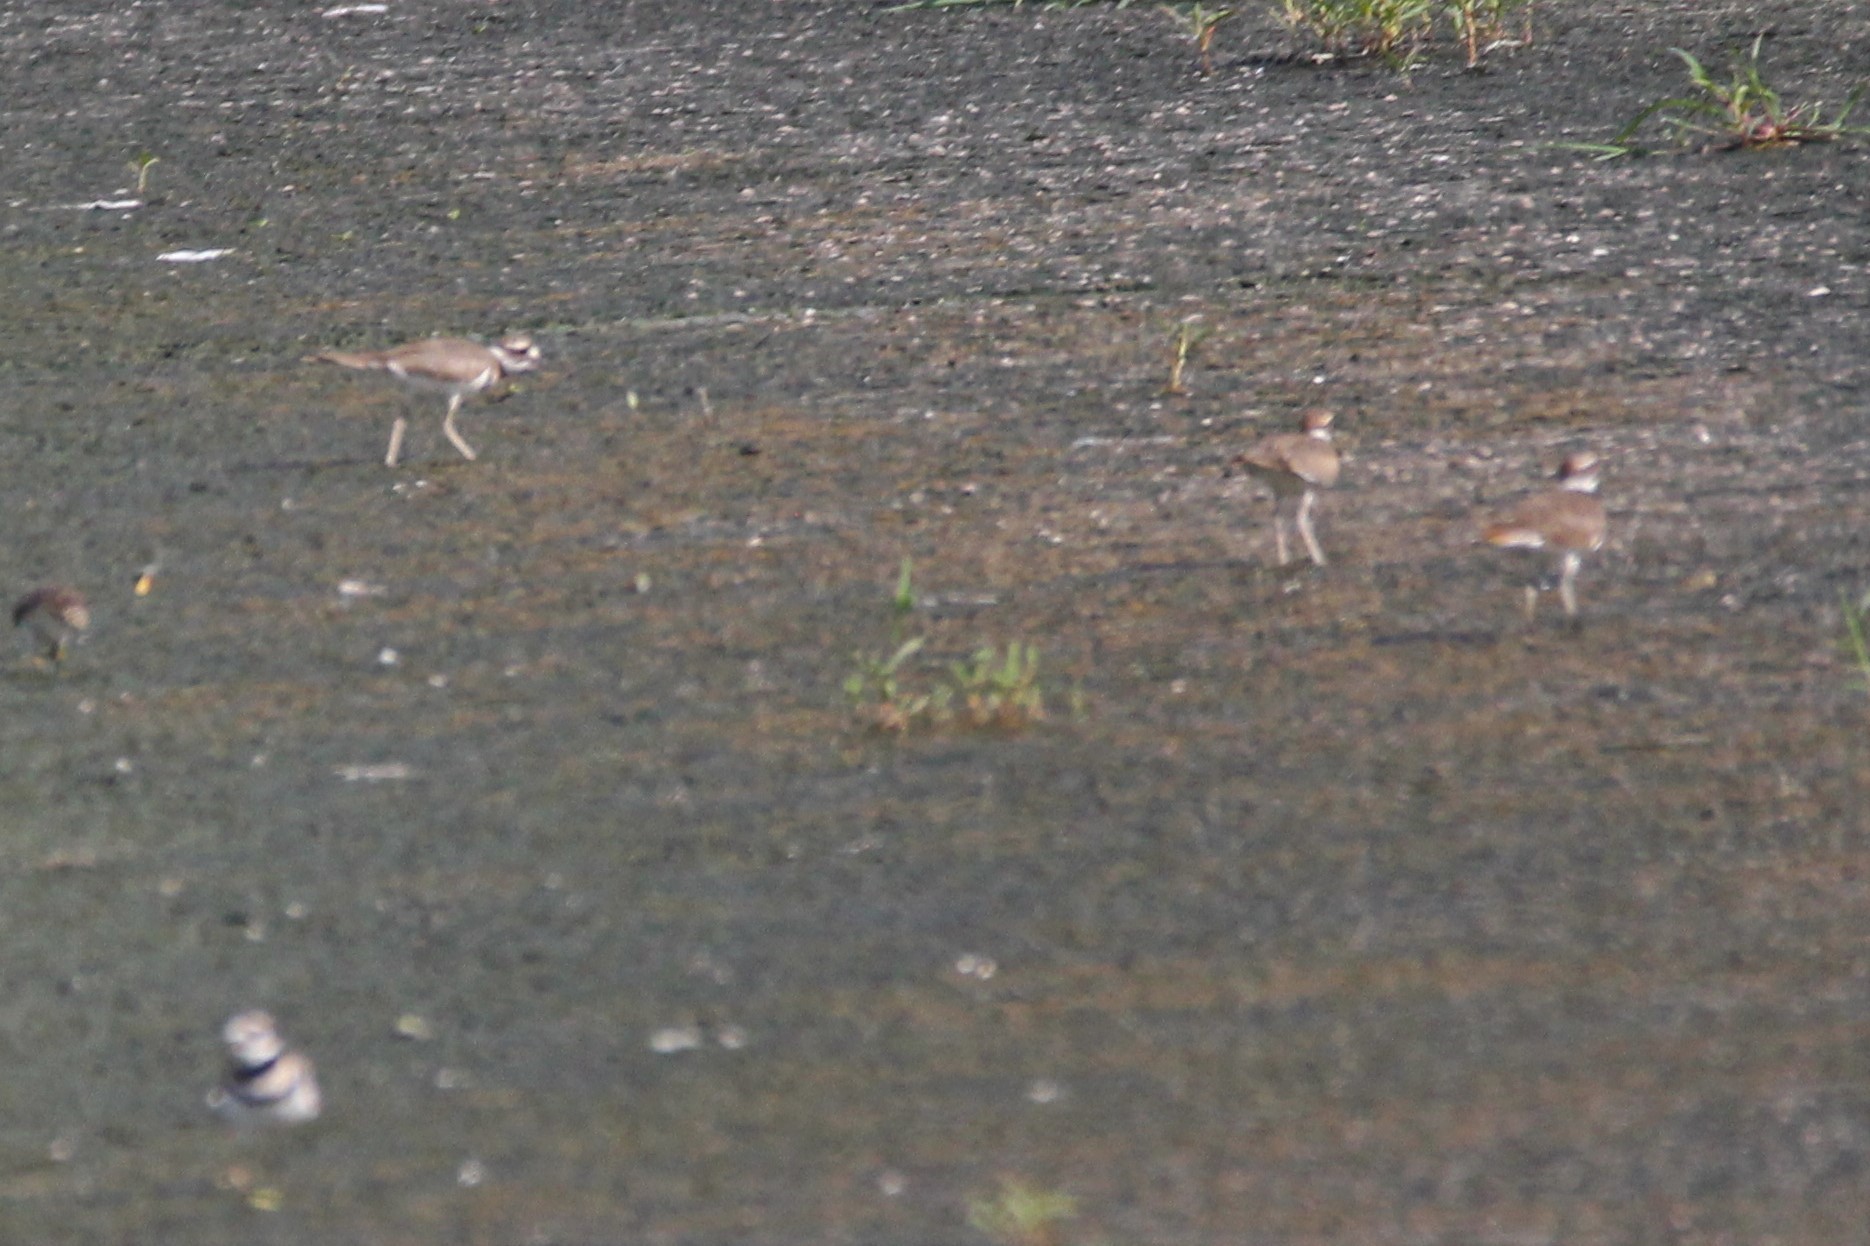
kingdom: Animalia
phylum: Chordata
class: Aves
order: Charadriiformes
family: Charadriidae
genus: Charadrius
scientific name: Charadrius vociferus
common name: Killdeer
